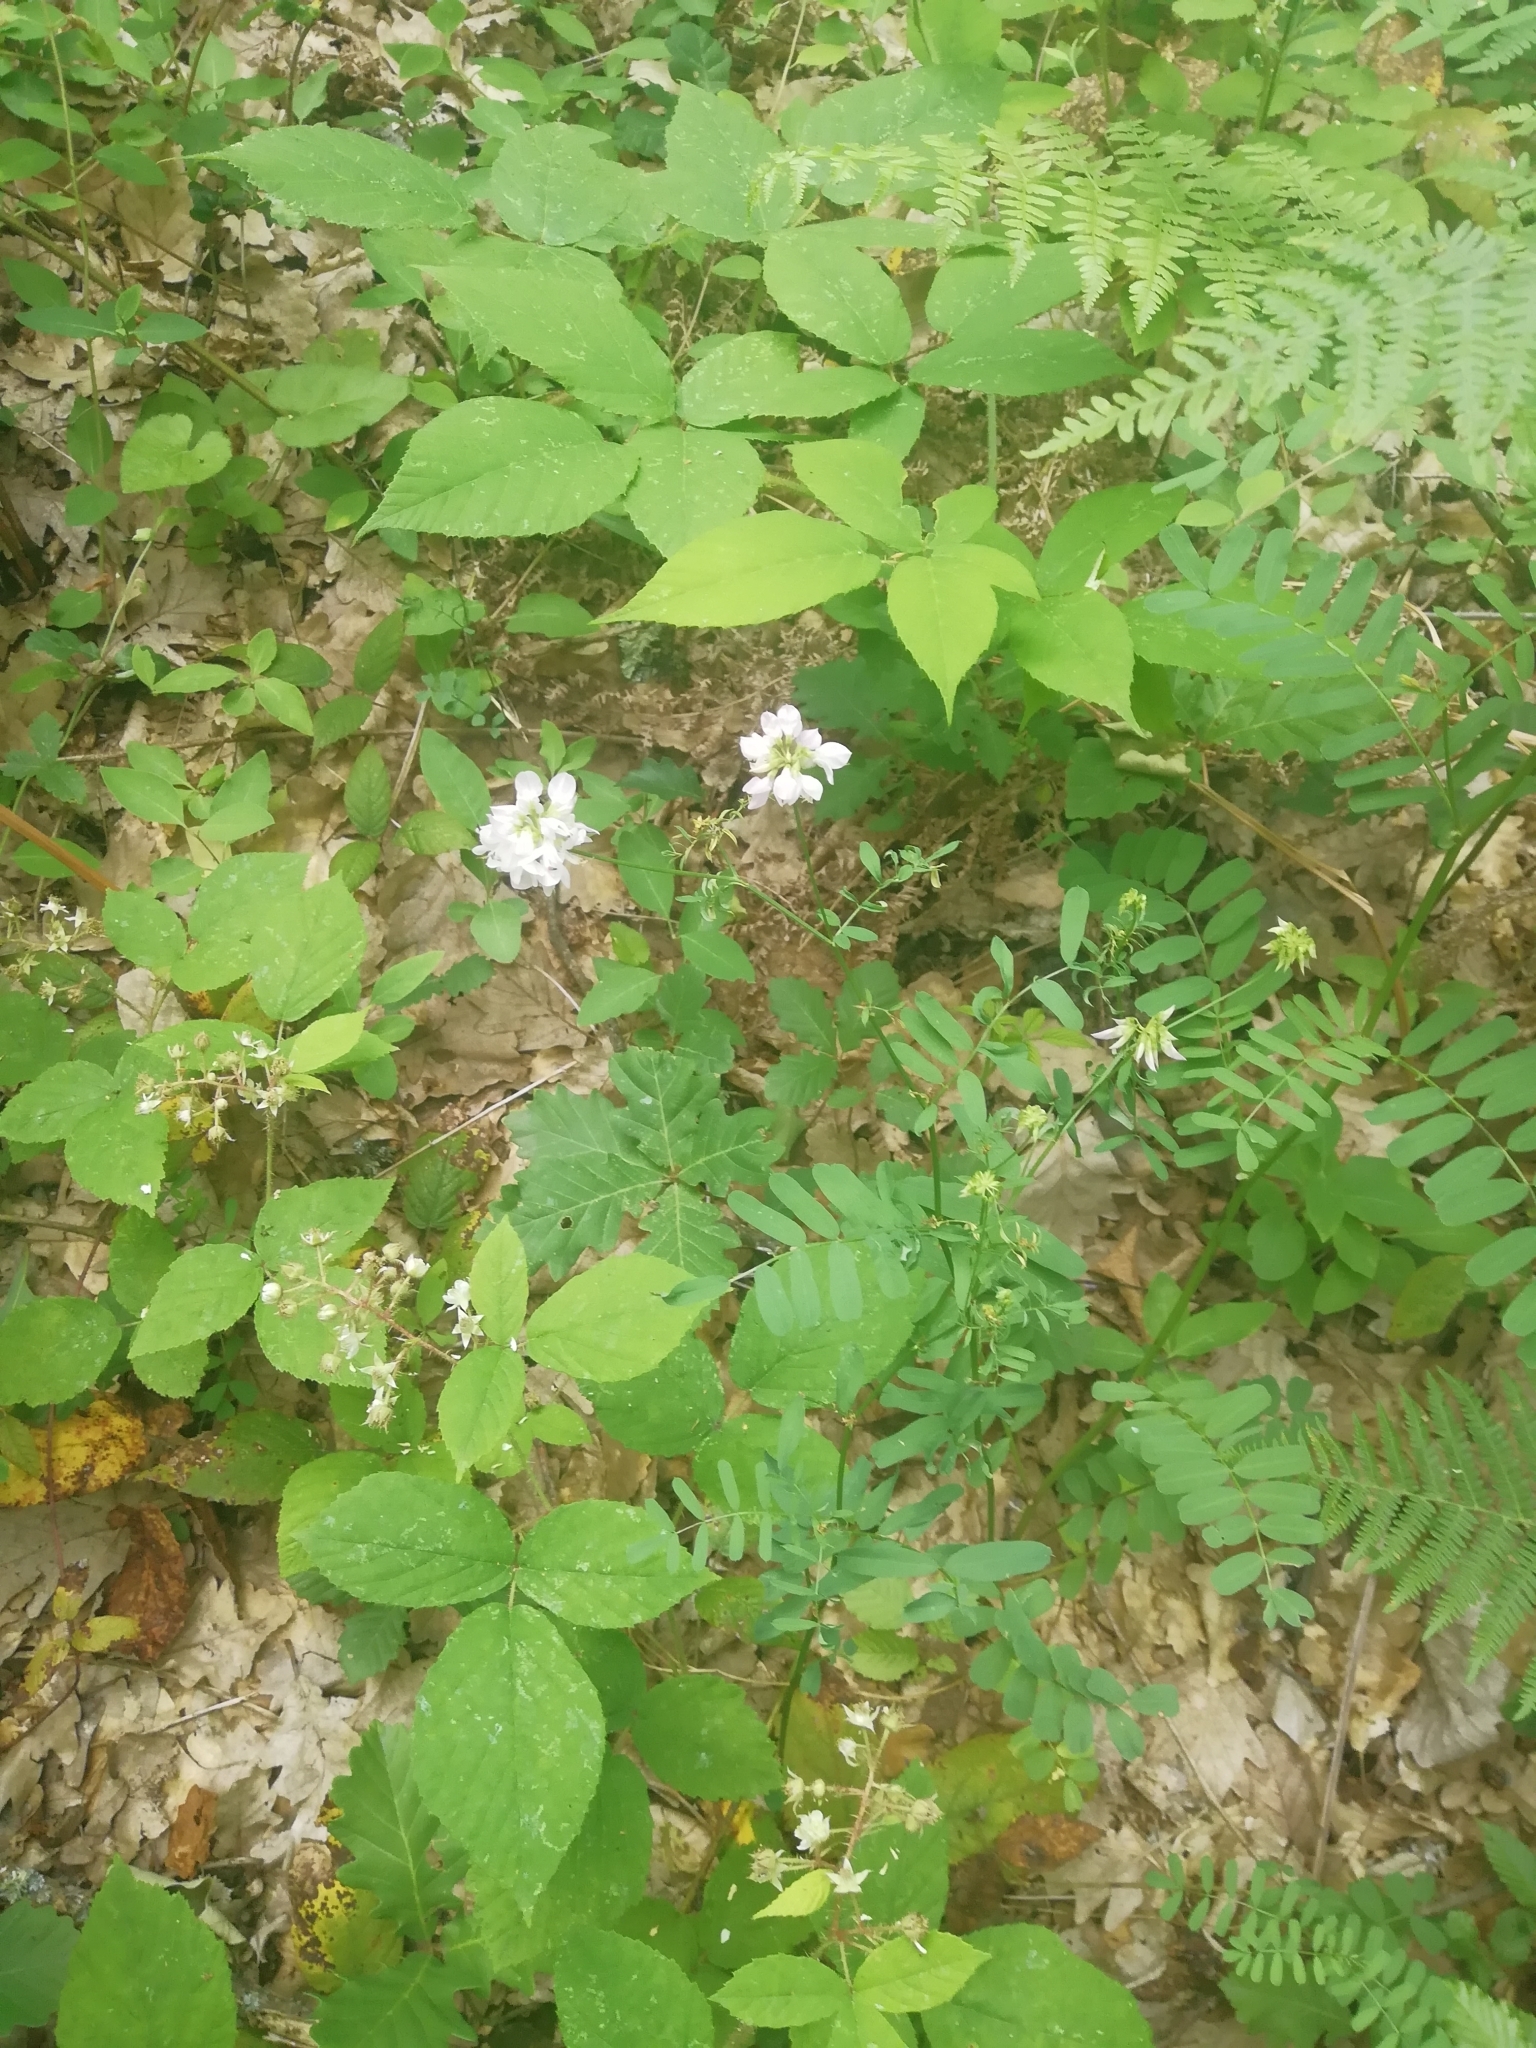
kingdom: Plantae
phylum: Tracheophyta
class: Magnoliopsida
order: Fabales
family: Fabaceae
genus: Coronilla
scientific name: Coronilla varia
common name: Crownvetch
